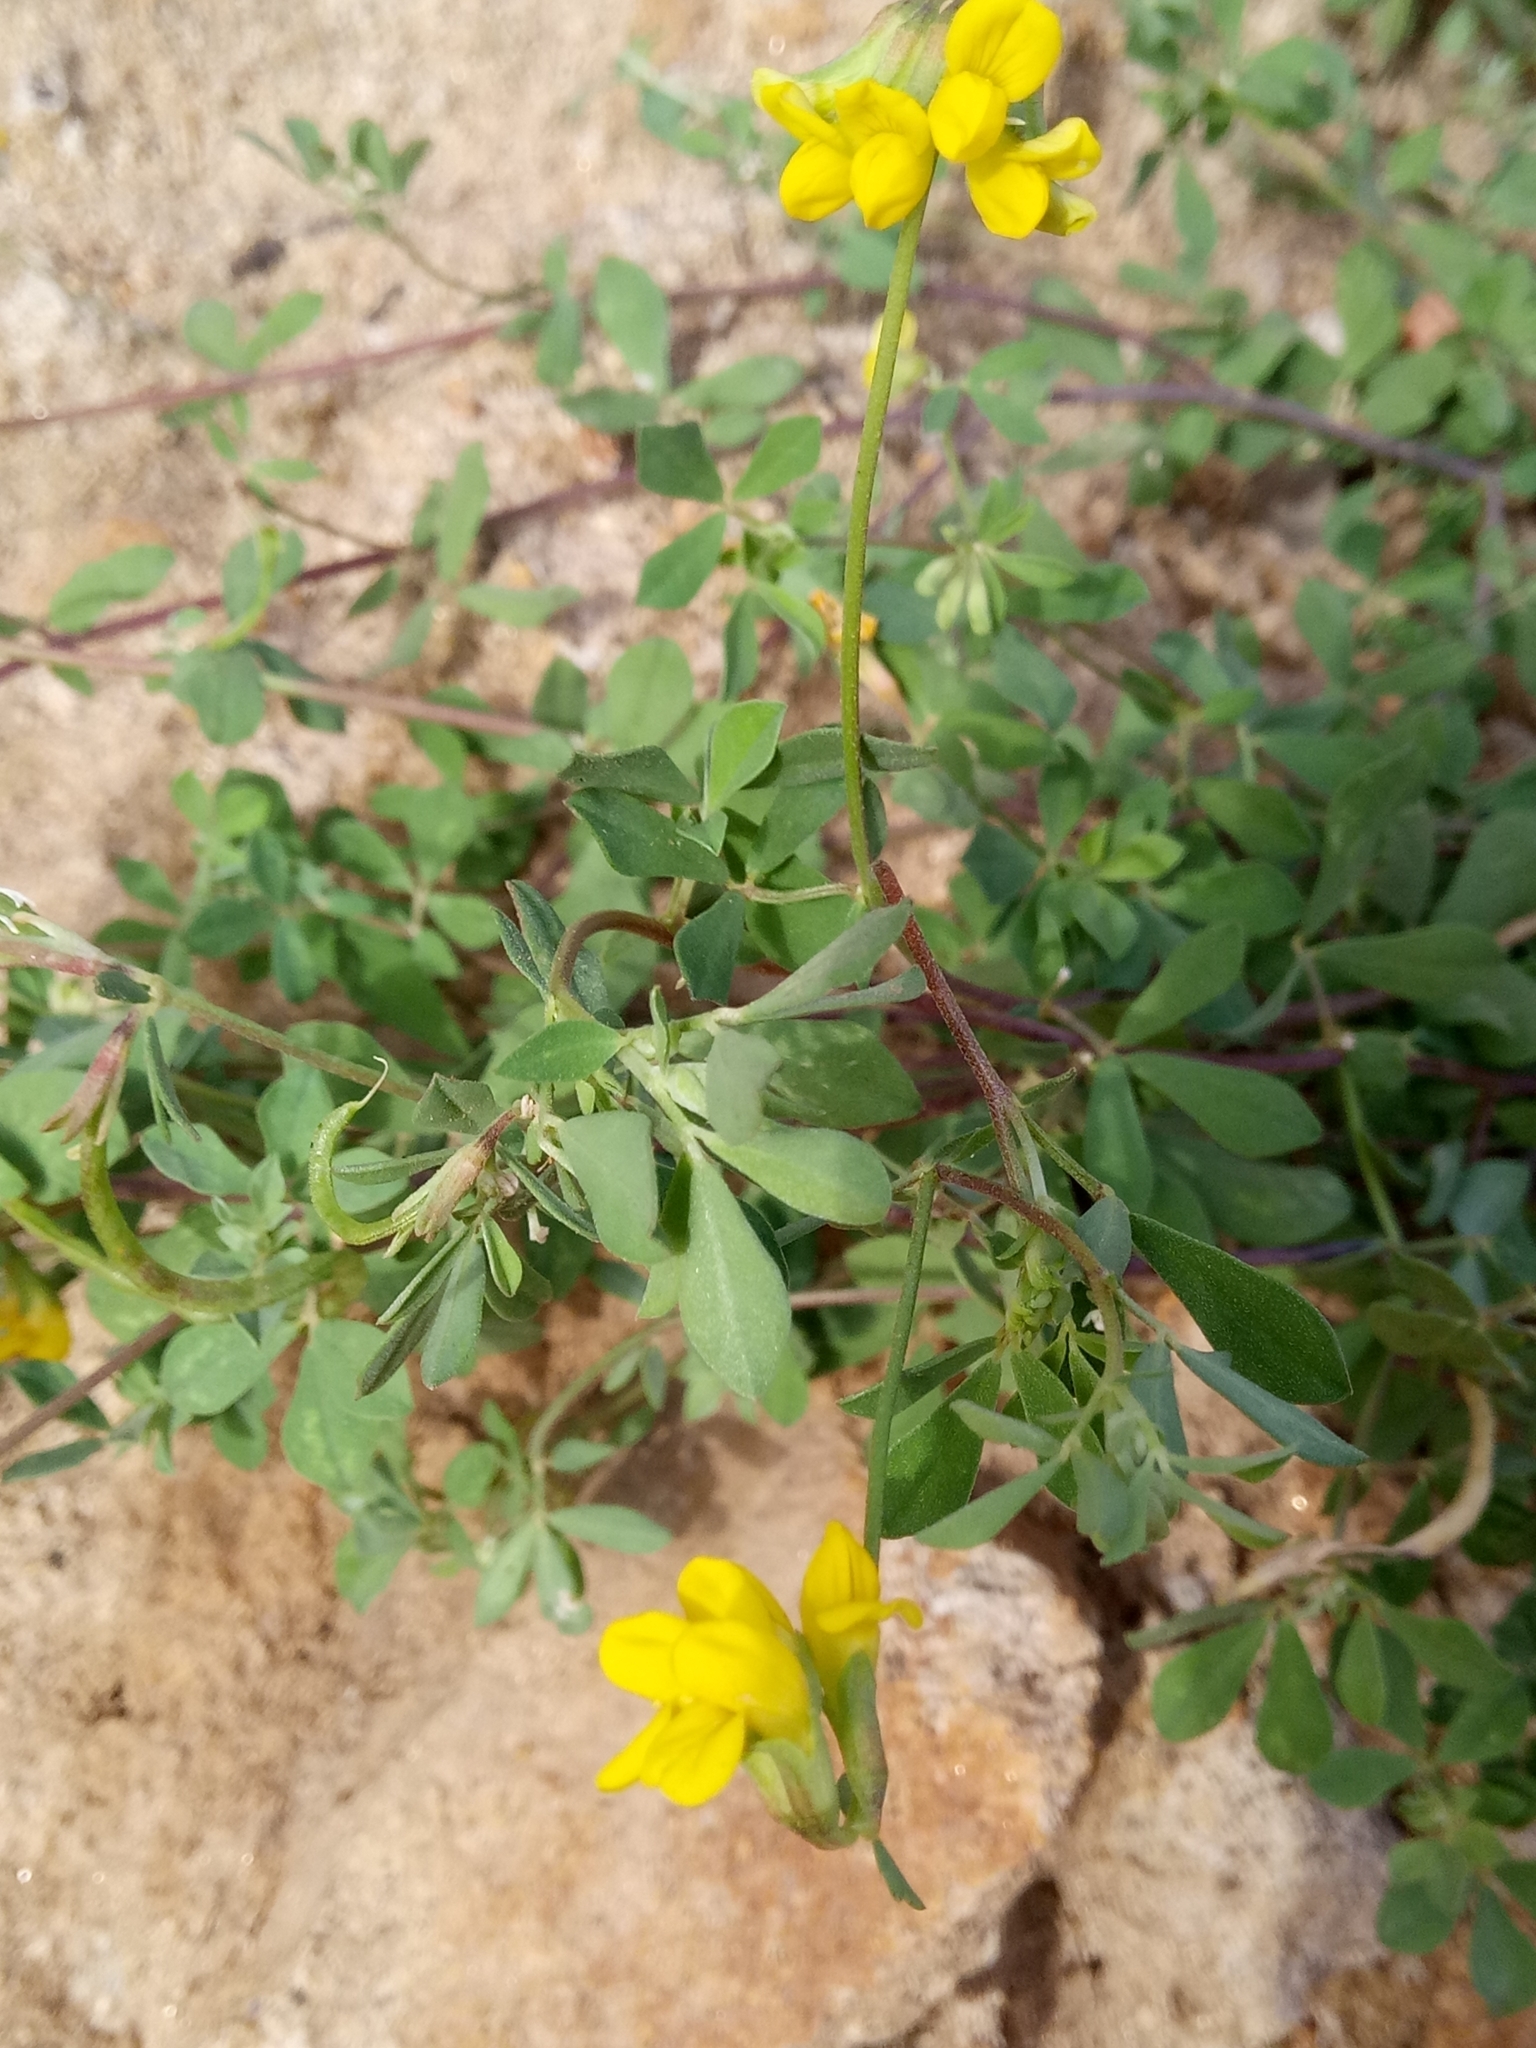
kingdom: Plantae
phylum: Tracheophyta
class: Magnoliopsida
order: Fabales
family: Fabaceae
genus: Lotus
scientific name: Lotus drepanocarpus
